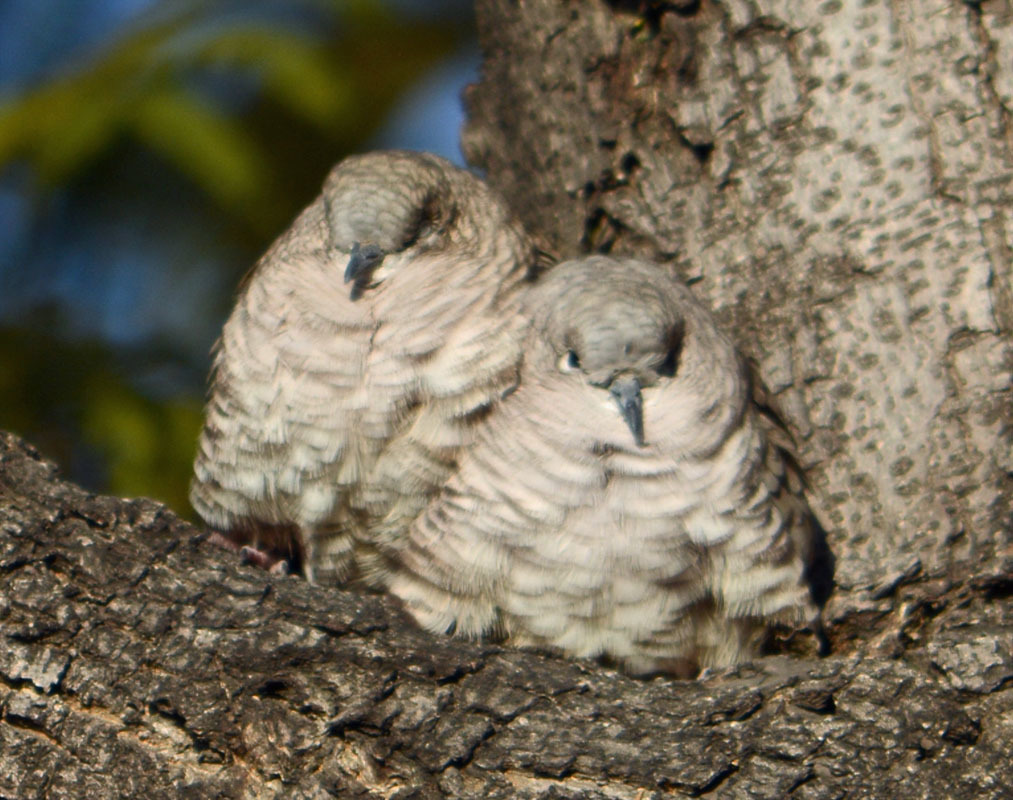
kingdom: Animalia
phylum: Chordata
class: Aves
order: Columbiformes
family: Columbidae
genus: Columbina
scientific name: Columbina inca
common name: Inca dove
